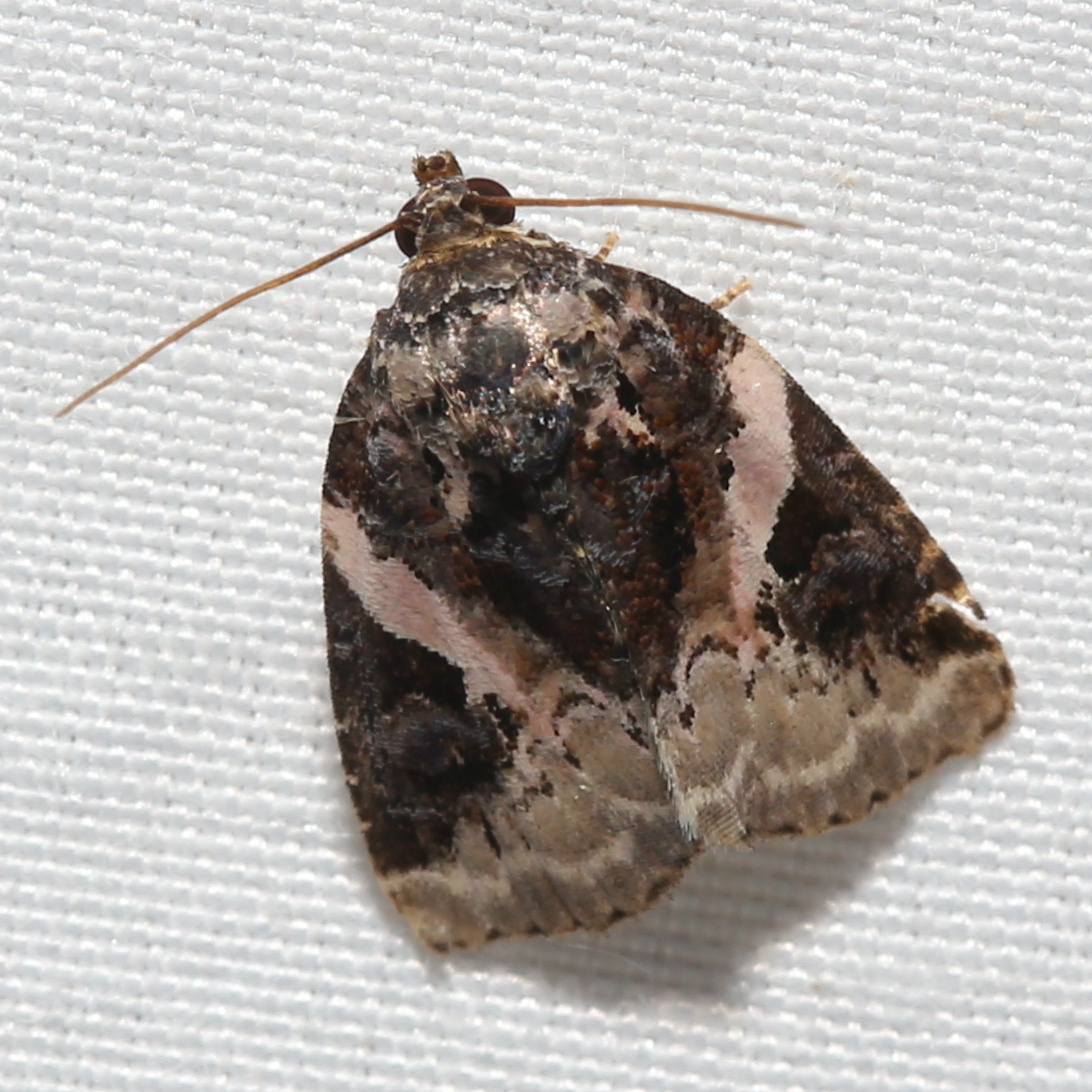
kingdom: Animalia
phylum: Arthropoda
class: Insecta
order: Lepidoptera
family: Noctuidae
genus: Pseudeustrotia
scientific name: Pseudeustrotia carneola
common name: Pink-barred lithacodia moth
